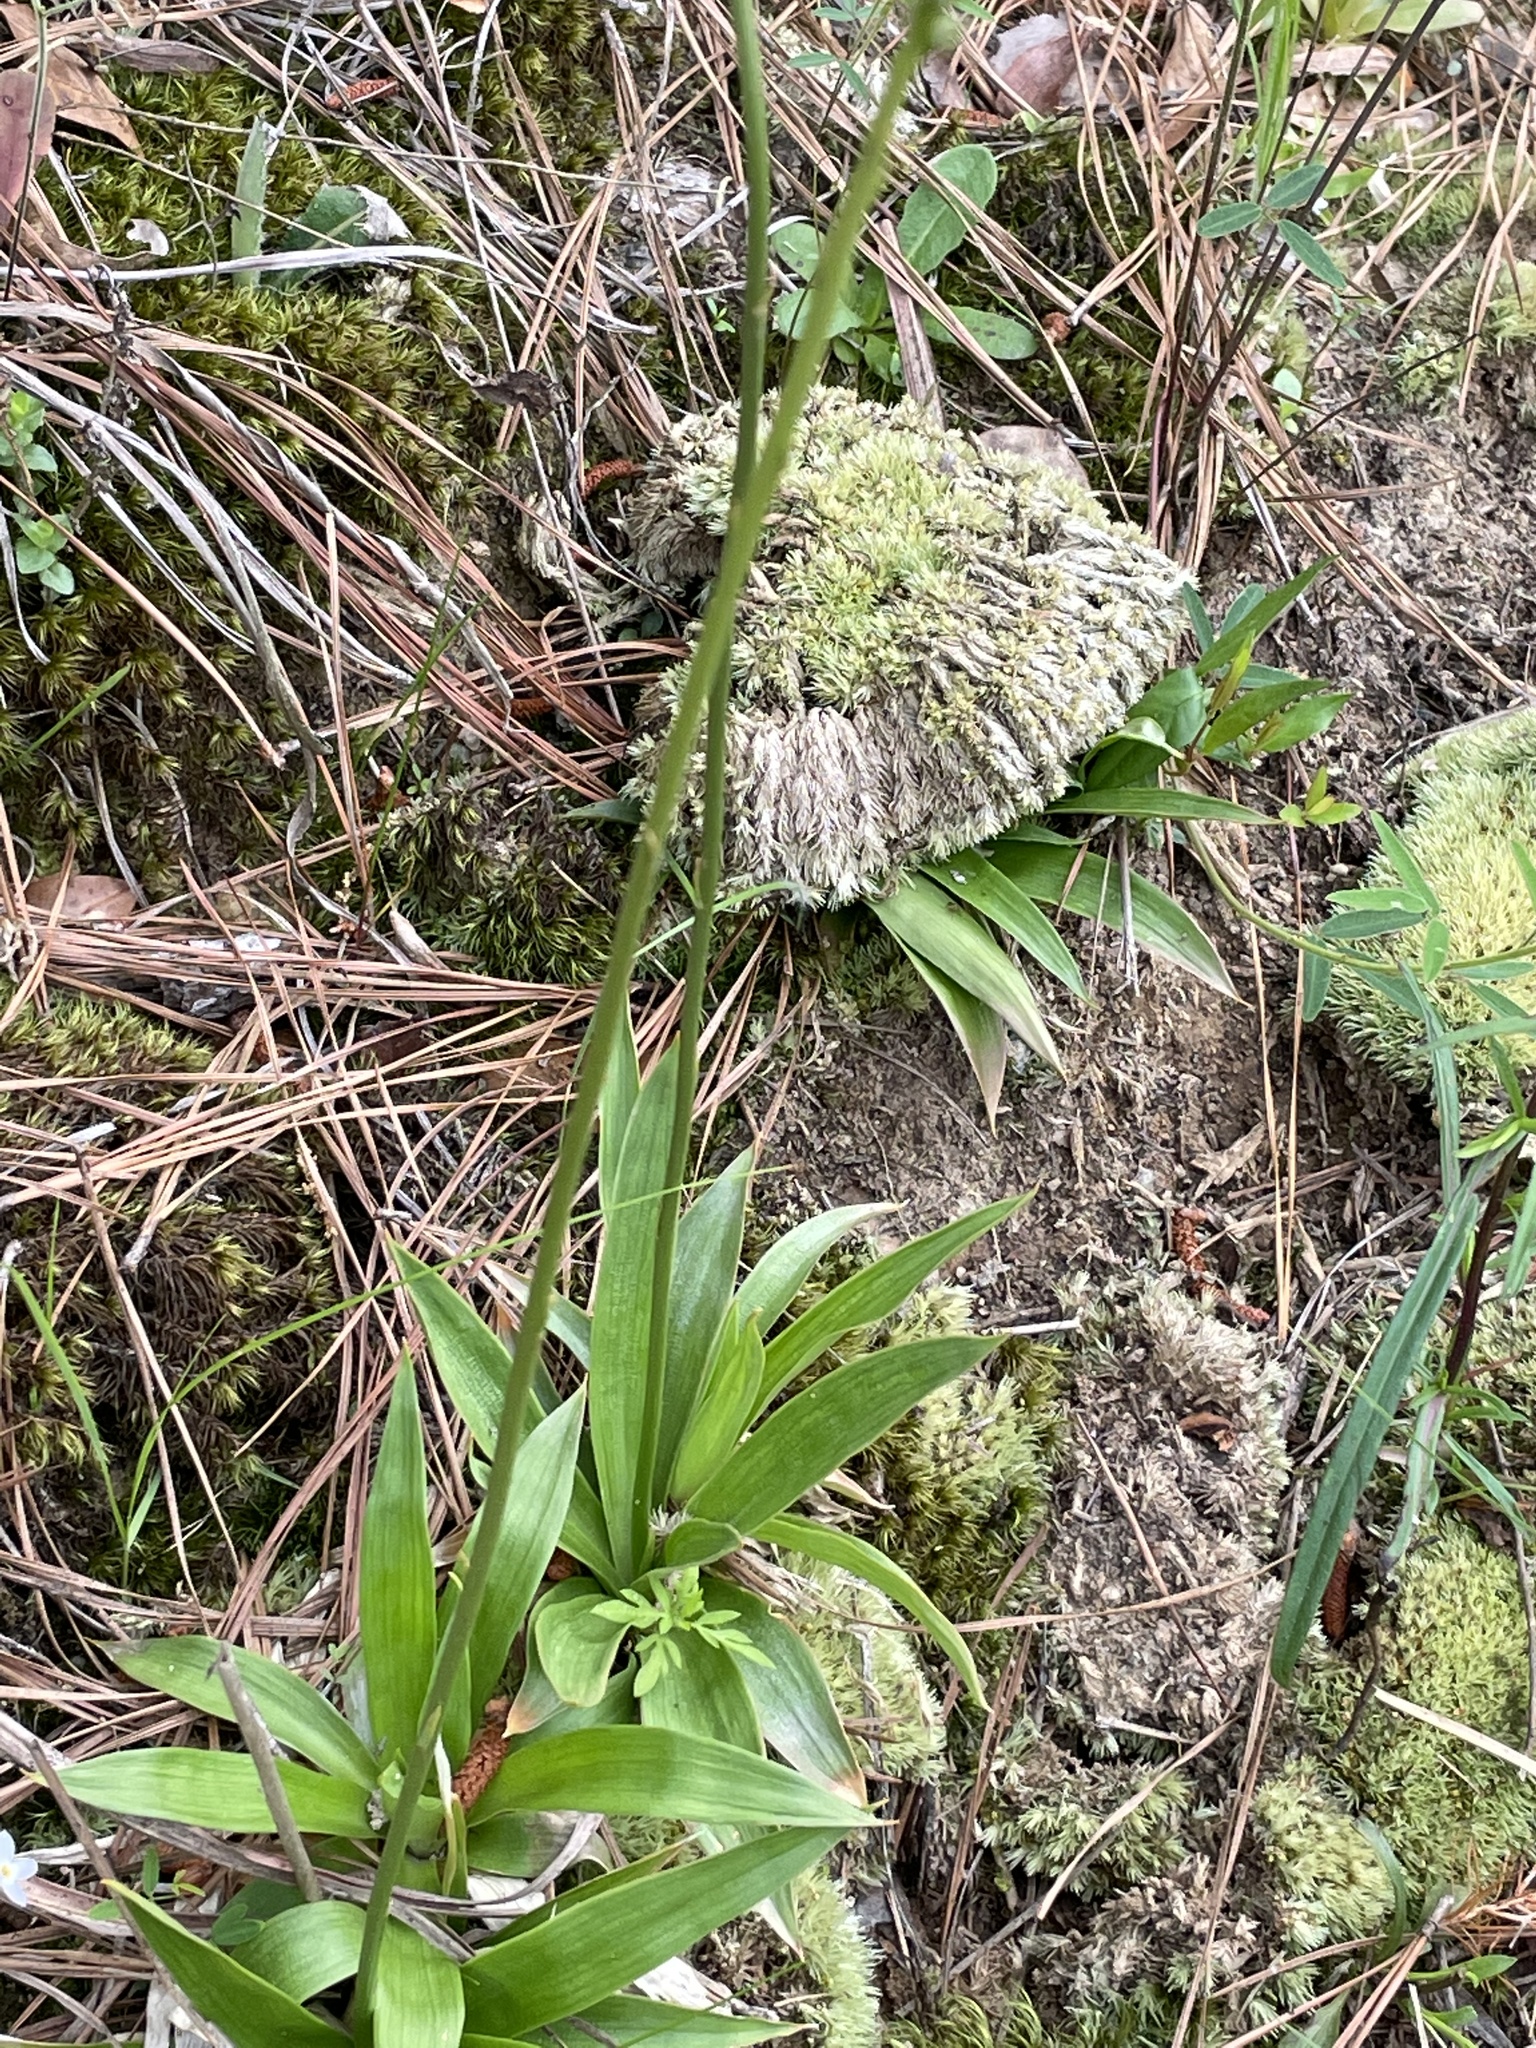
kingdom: Plantae
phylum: Tracheophyta
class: Liliopsida
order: Dioscoreales
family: Nartheciaceae
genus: Aletris
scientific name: Aletris farinosa
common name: Colicroot
